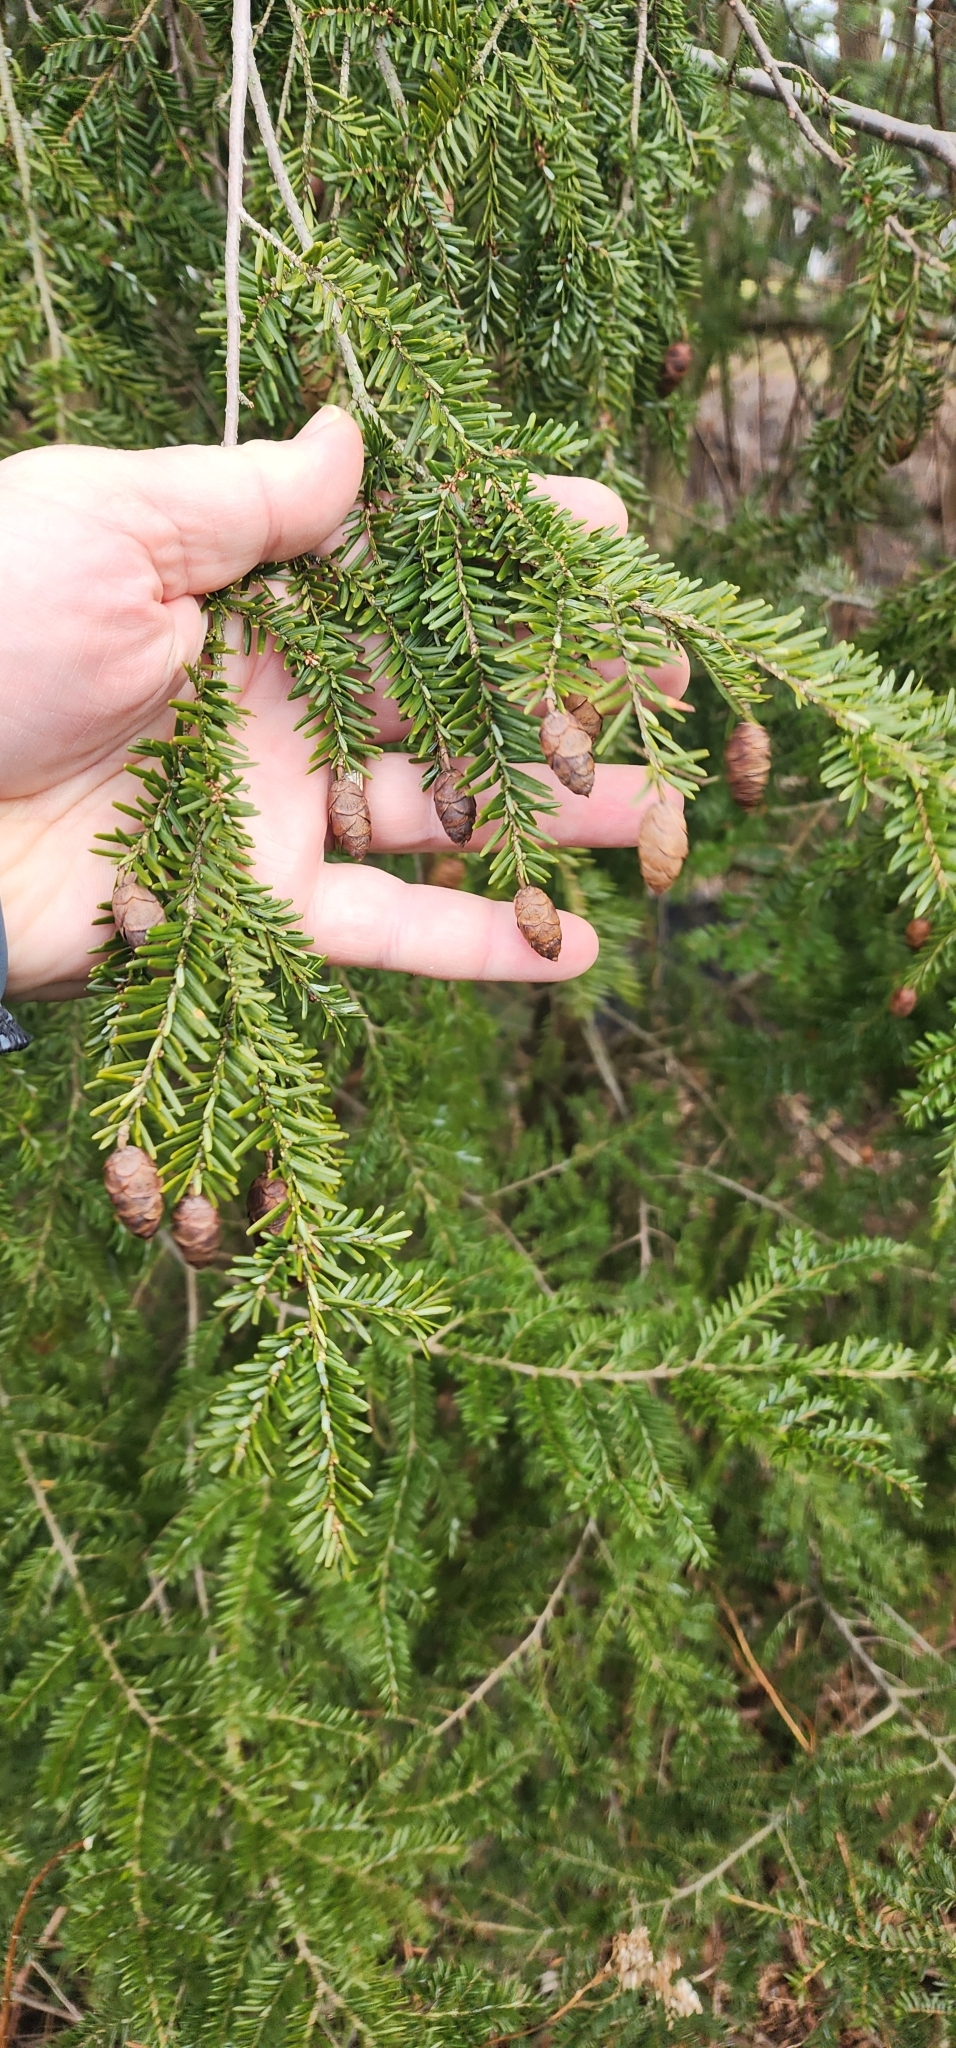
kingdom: Plantae
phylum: Tracheophyta
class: Pinopsida
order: Pinales
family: Pinaceae
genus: Tsuga
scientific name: Tsuga canadensis
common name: Eastern hemlock
